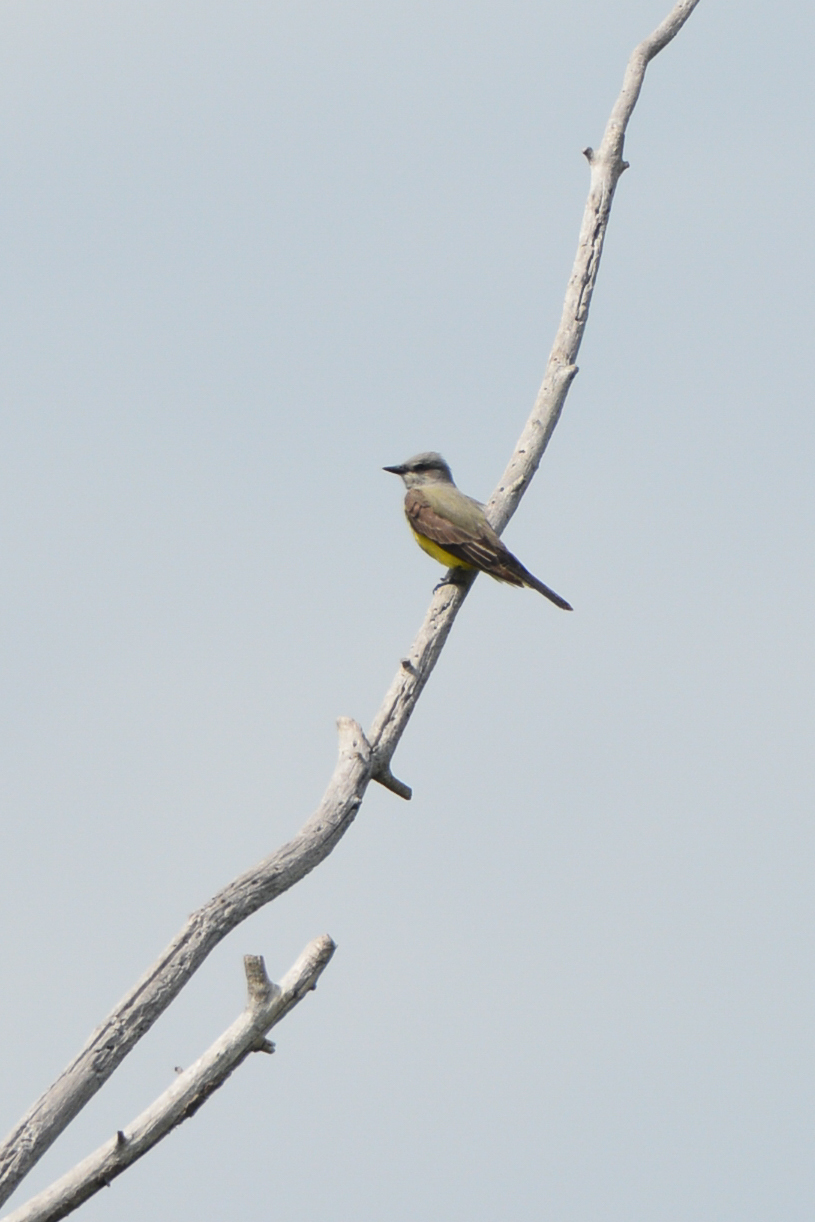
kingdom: Animalia
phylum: Chordata
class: Aves
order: Passeriformes
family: Tyrannidae
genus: Tyrannus
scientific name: Tyrannus verticalis
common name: Western kingbird
